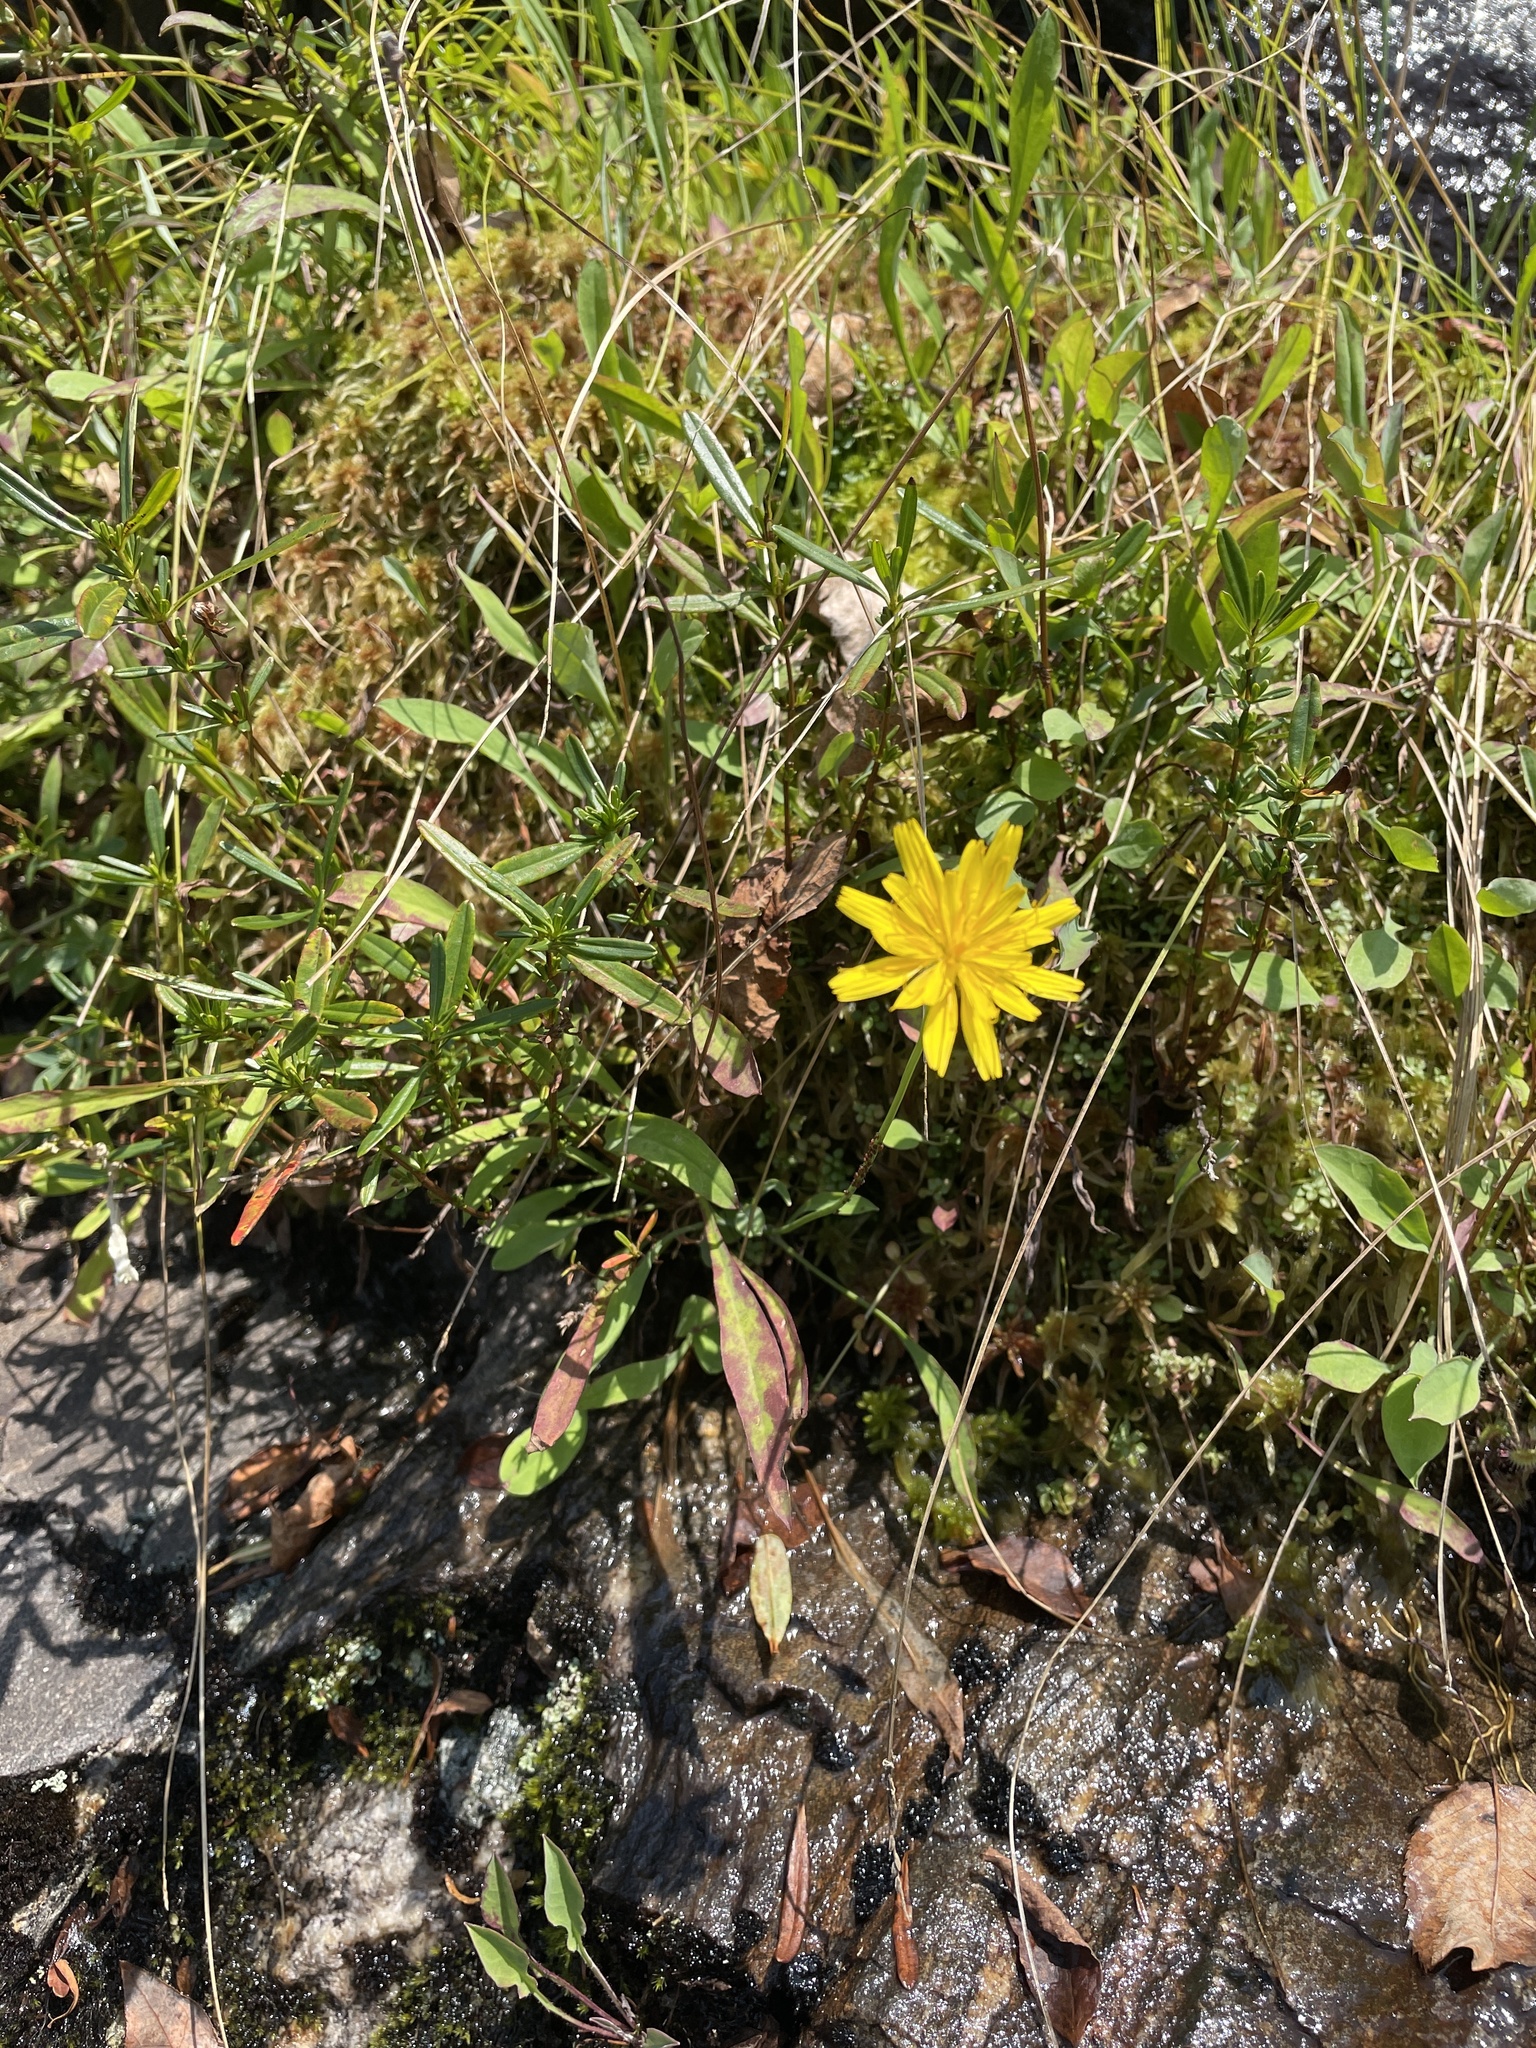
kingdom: Plantae
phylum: Tracheophyta
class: Magnoliopsida
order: Asterales
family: Asteraceae
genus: Krigia
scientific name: Krigia montana
